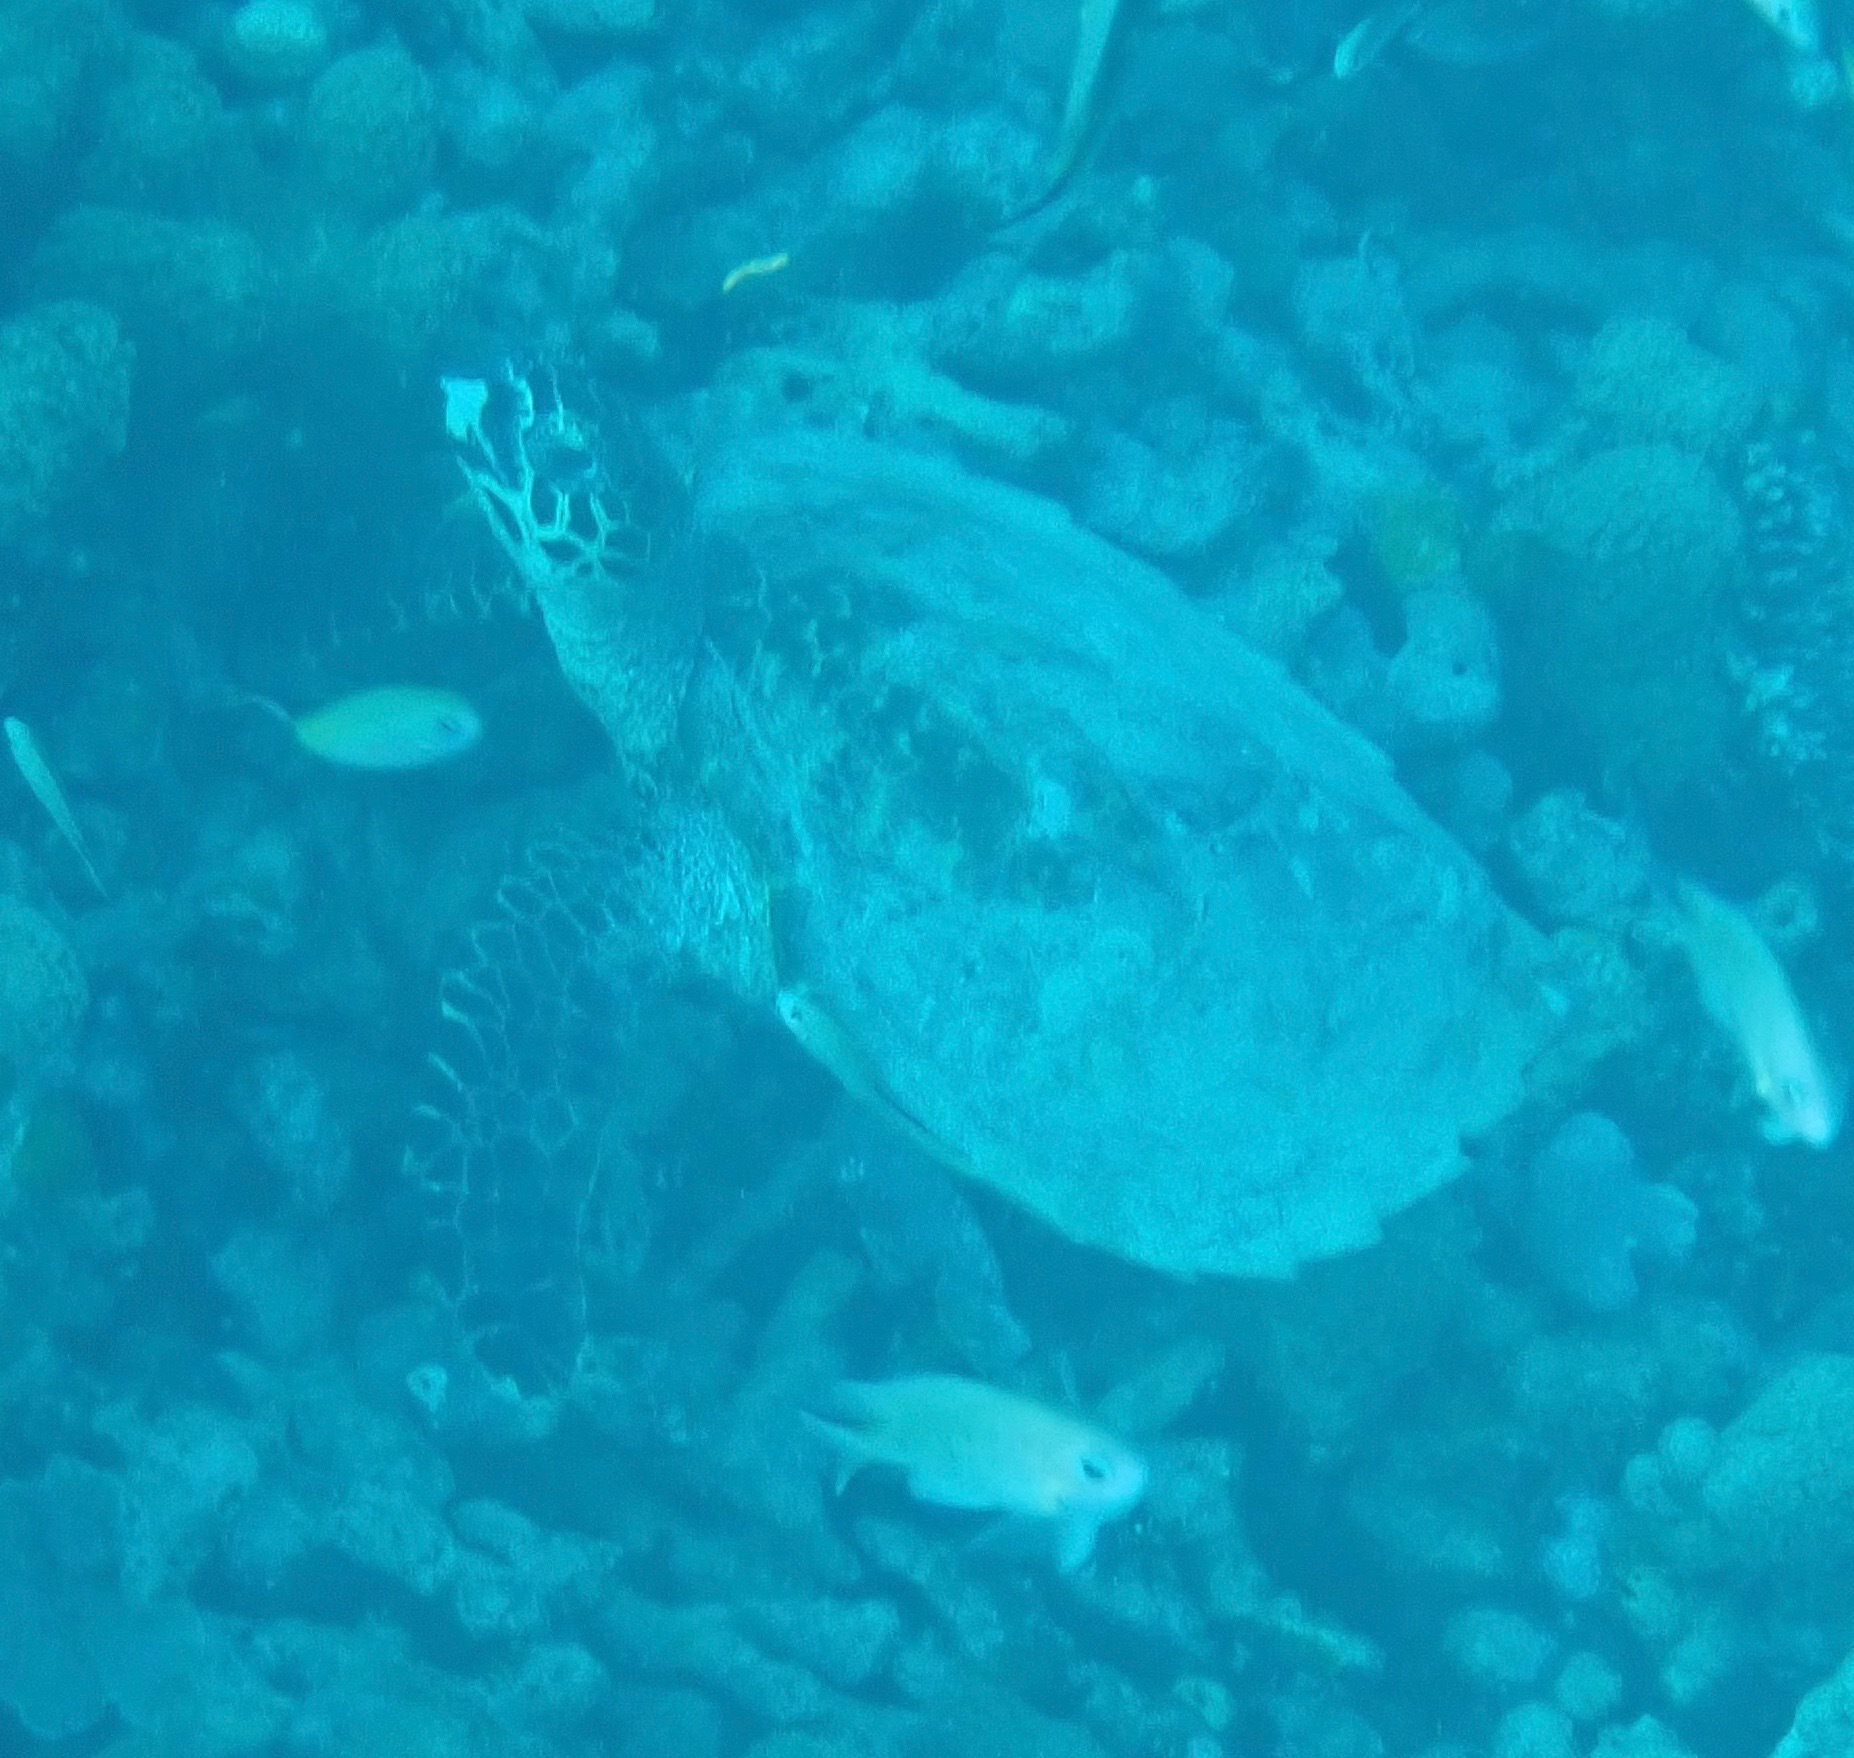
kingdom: Animalia
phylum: Chordata
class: Testudines
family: Cheloniidae
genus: Eretmochelys
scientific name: Eretmochelys imbricata
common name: Hawksbill turtle
